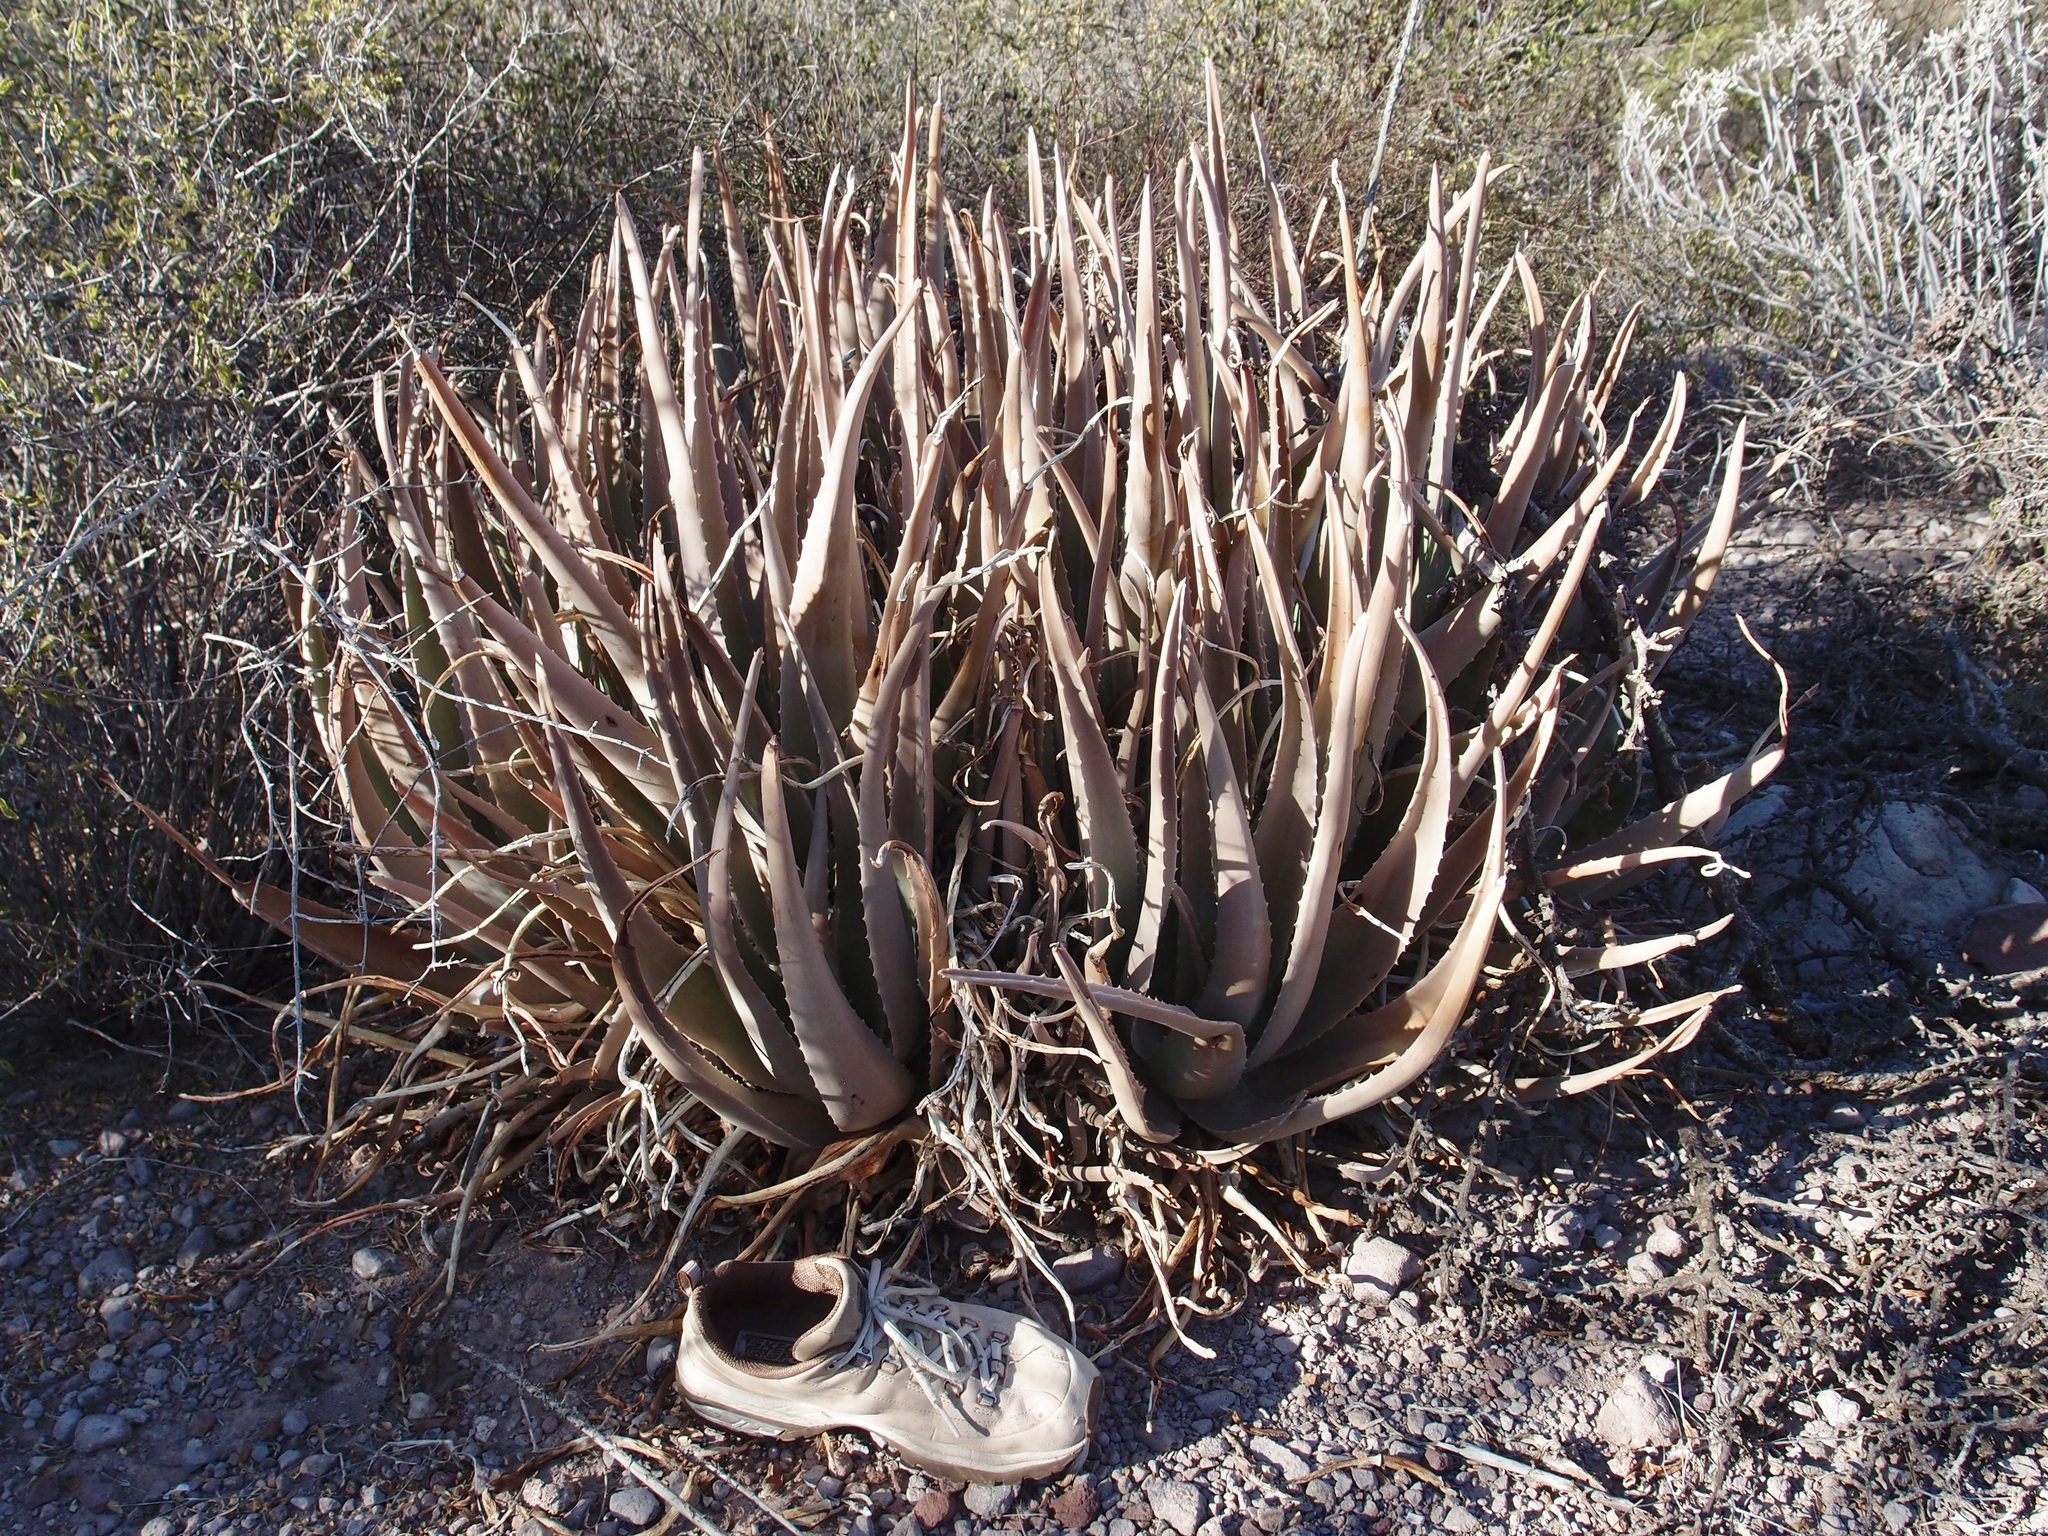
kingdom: Plantae
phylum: Tracheophyta
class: Liliopsida
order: Asparagales
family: Asphodelaceae
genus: Aloe
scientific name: Aloe vera
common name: Barbados aloe
